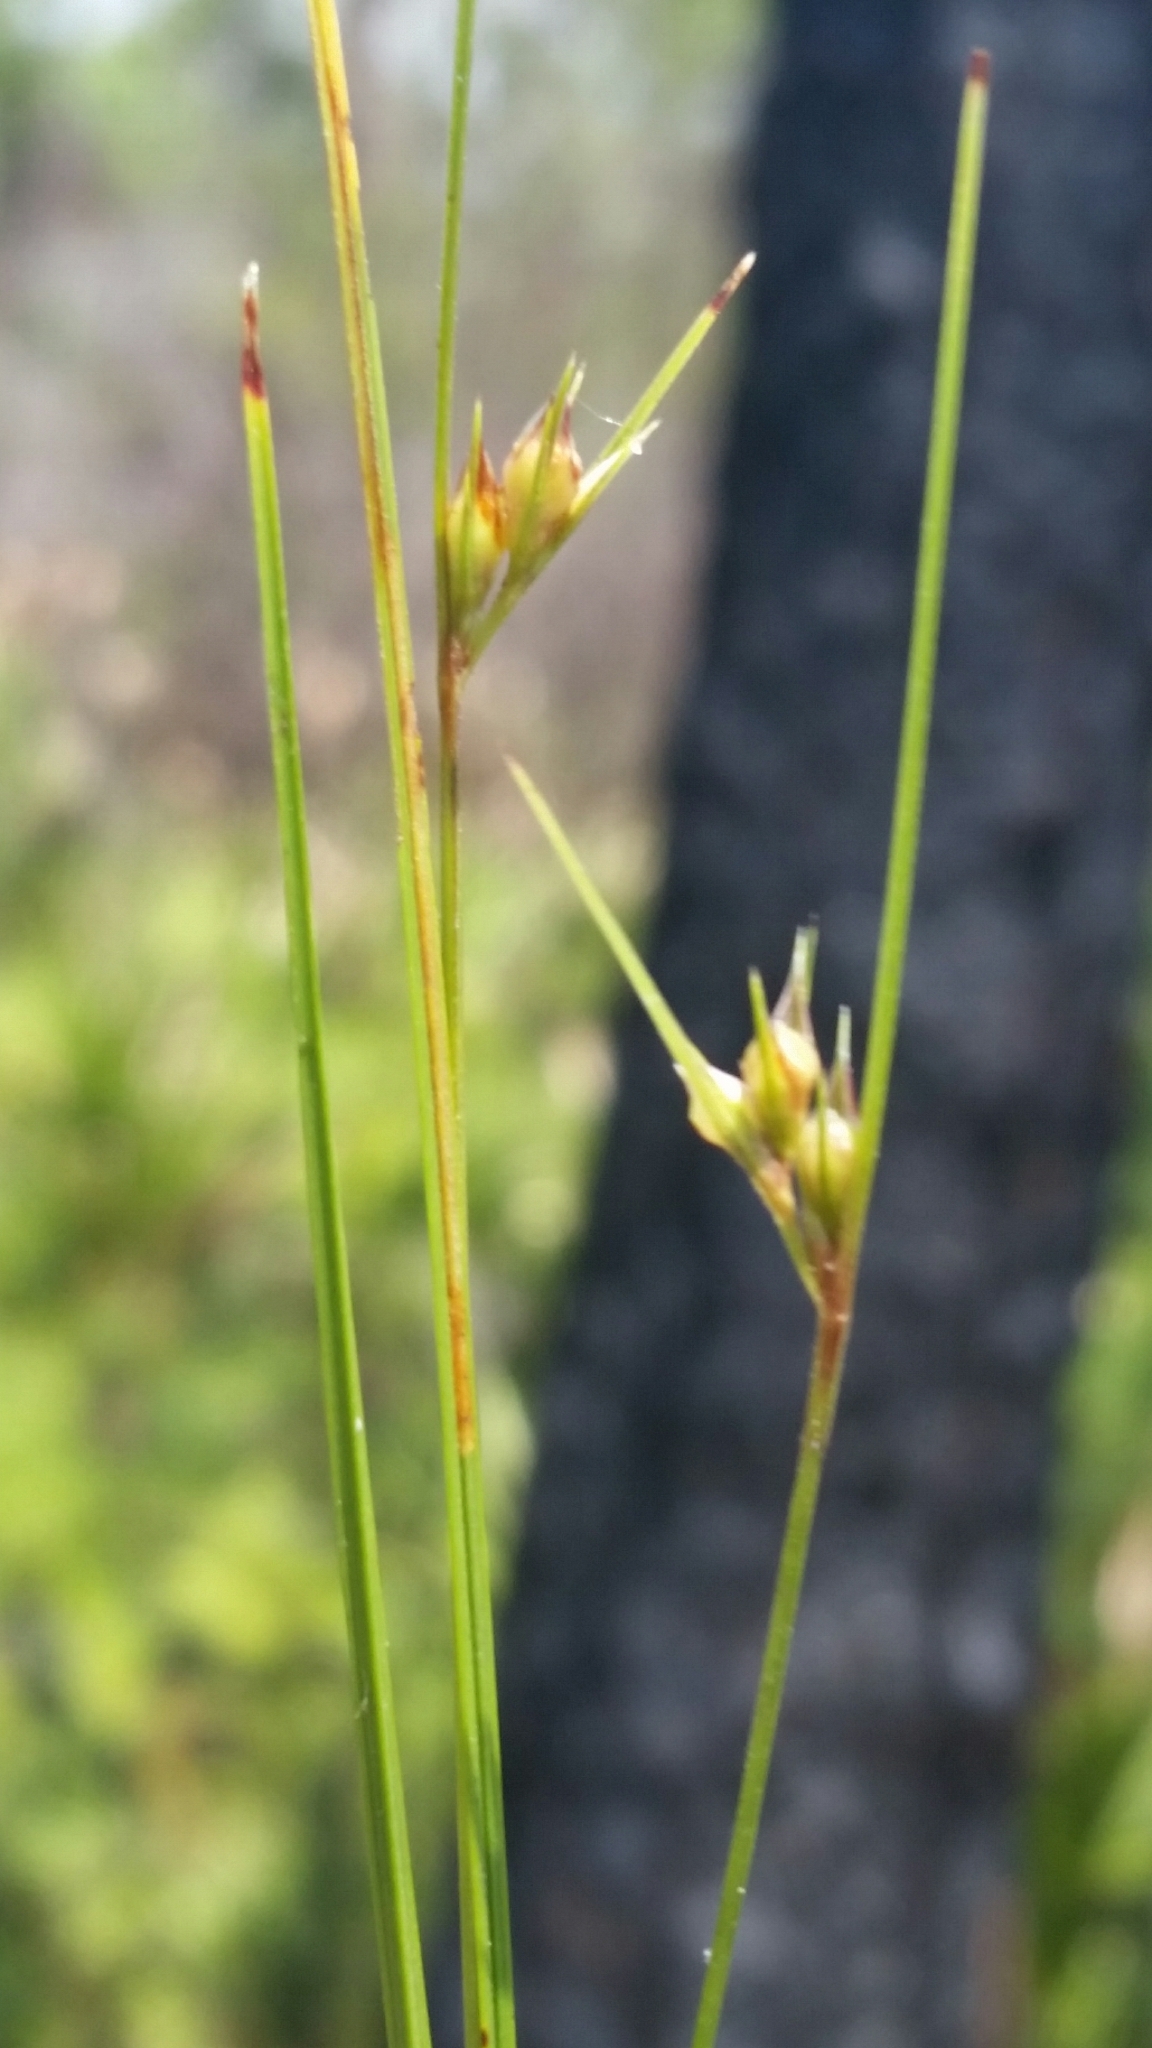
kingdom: Plantae
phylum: Tracheophyta
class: Liliopsida
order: Poales
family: Cyperaceae
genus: Scleria
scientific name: Scleria ciliata
